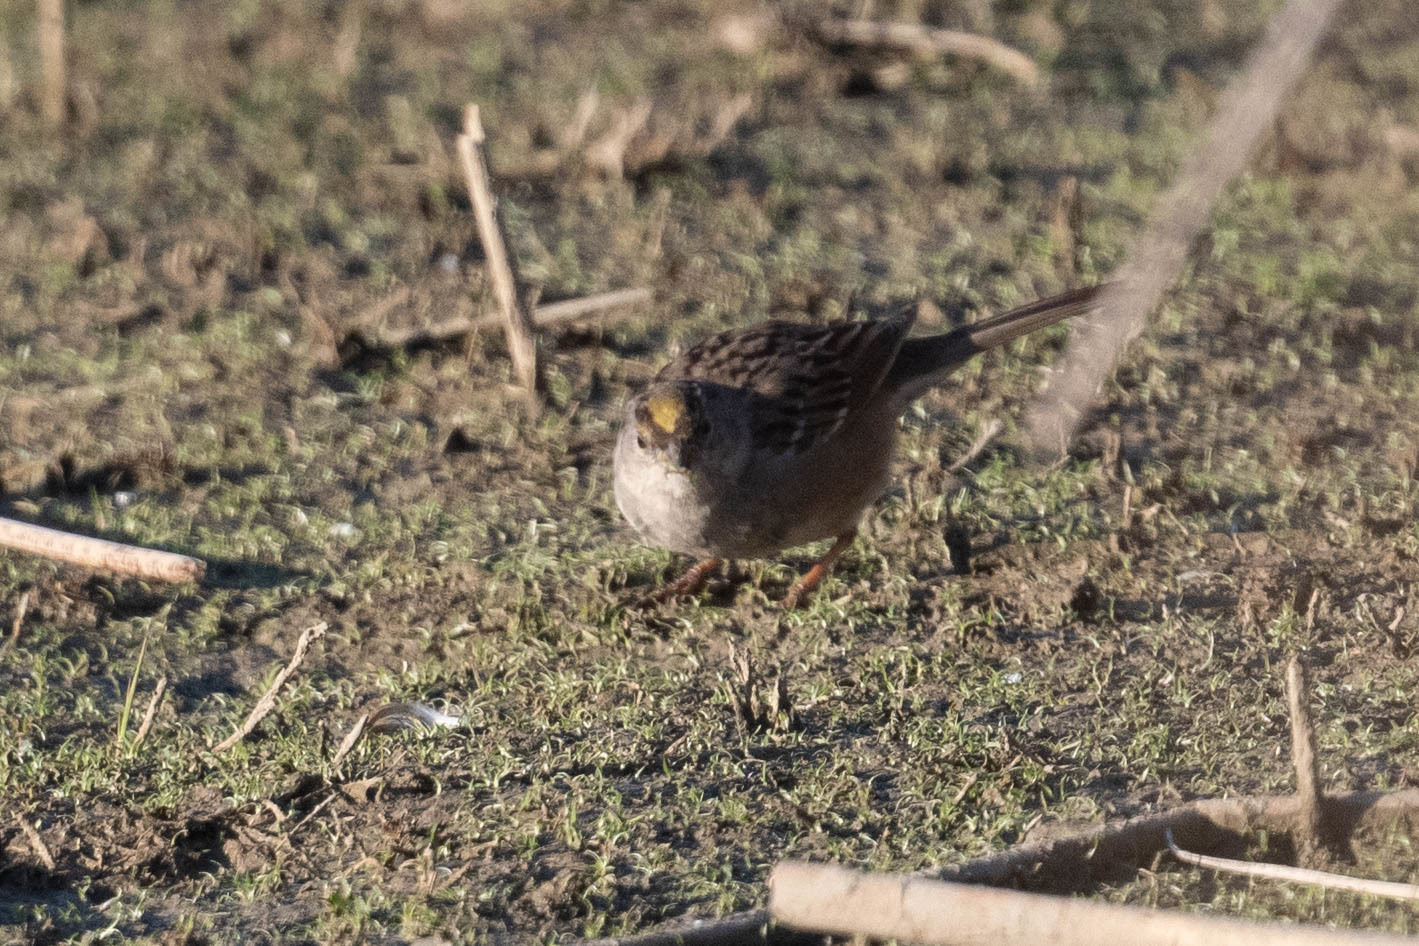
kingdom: Animalia
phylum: Chordata
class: Aves
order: Passeriformes
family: Passerellidae
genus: Zonotrichia
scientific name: Zonotrichia atricapilla
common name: Golden-crowned sparrow
